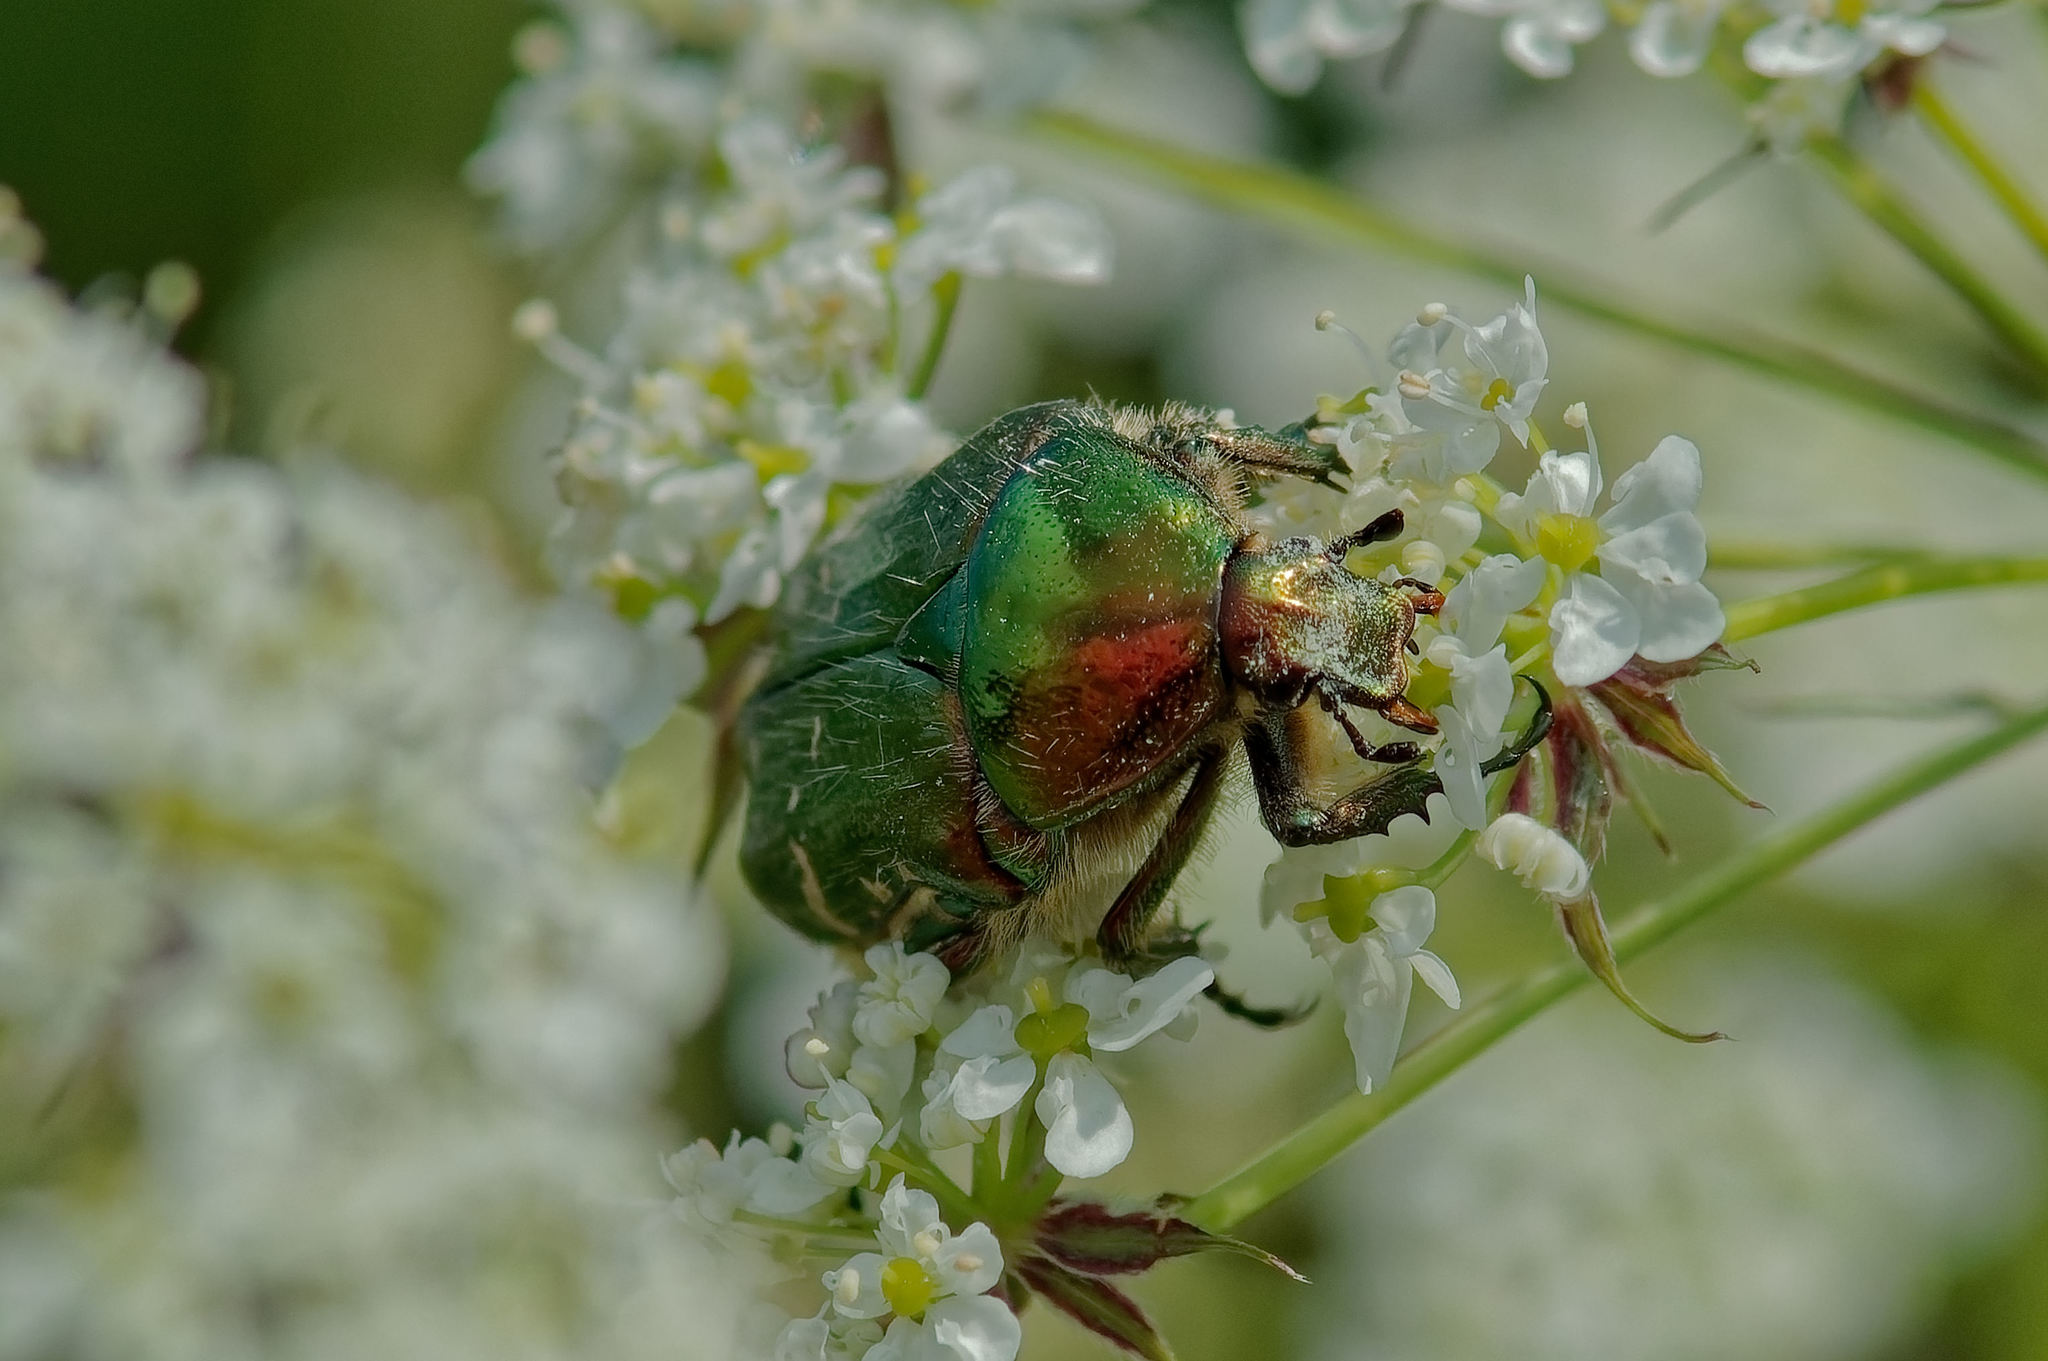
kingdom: Animalia
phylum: Arthropoda
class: Insecta
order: Coleoptera
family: Scarabaeidae
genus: Cetonia
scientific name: Cetonia aurata
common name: Rose chafer
